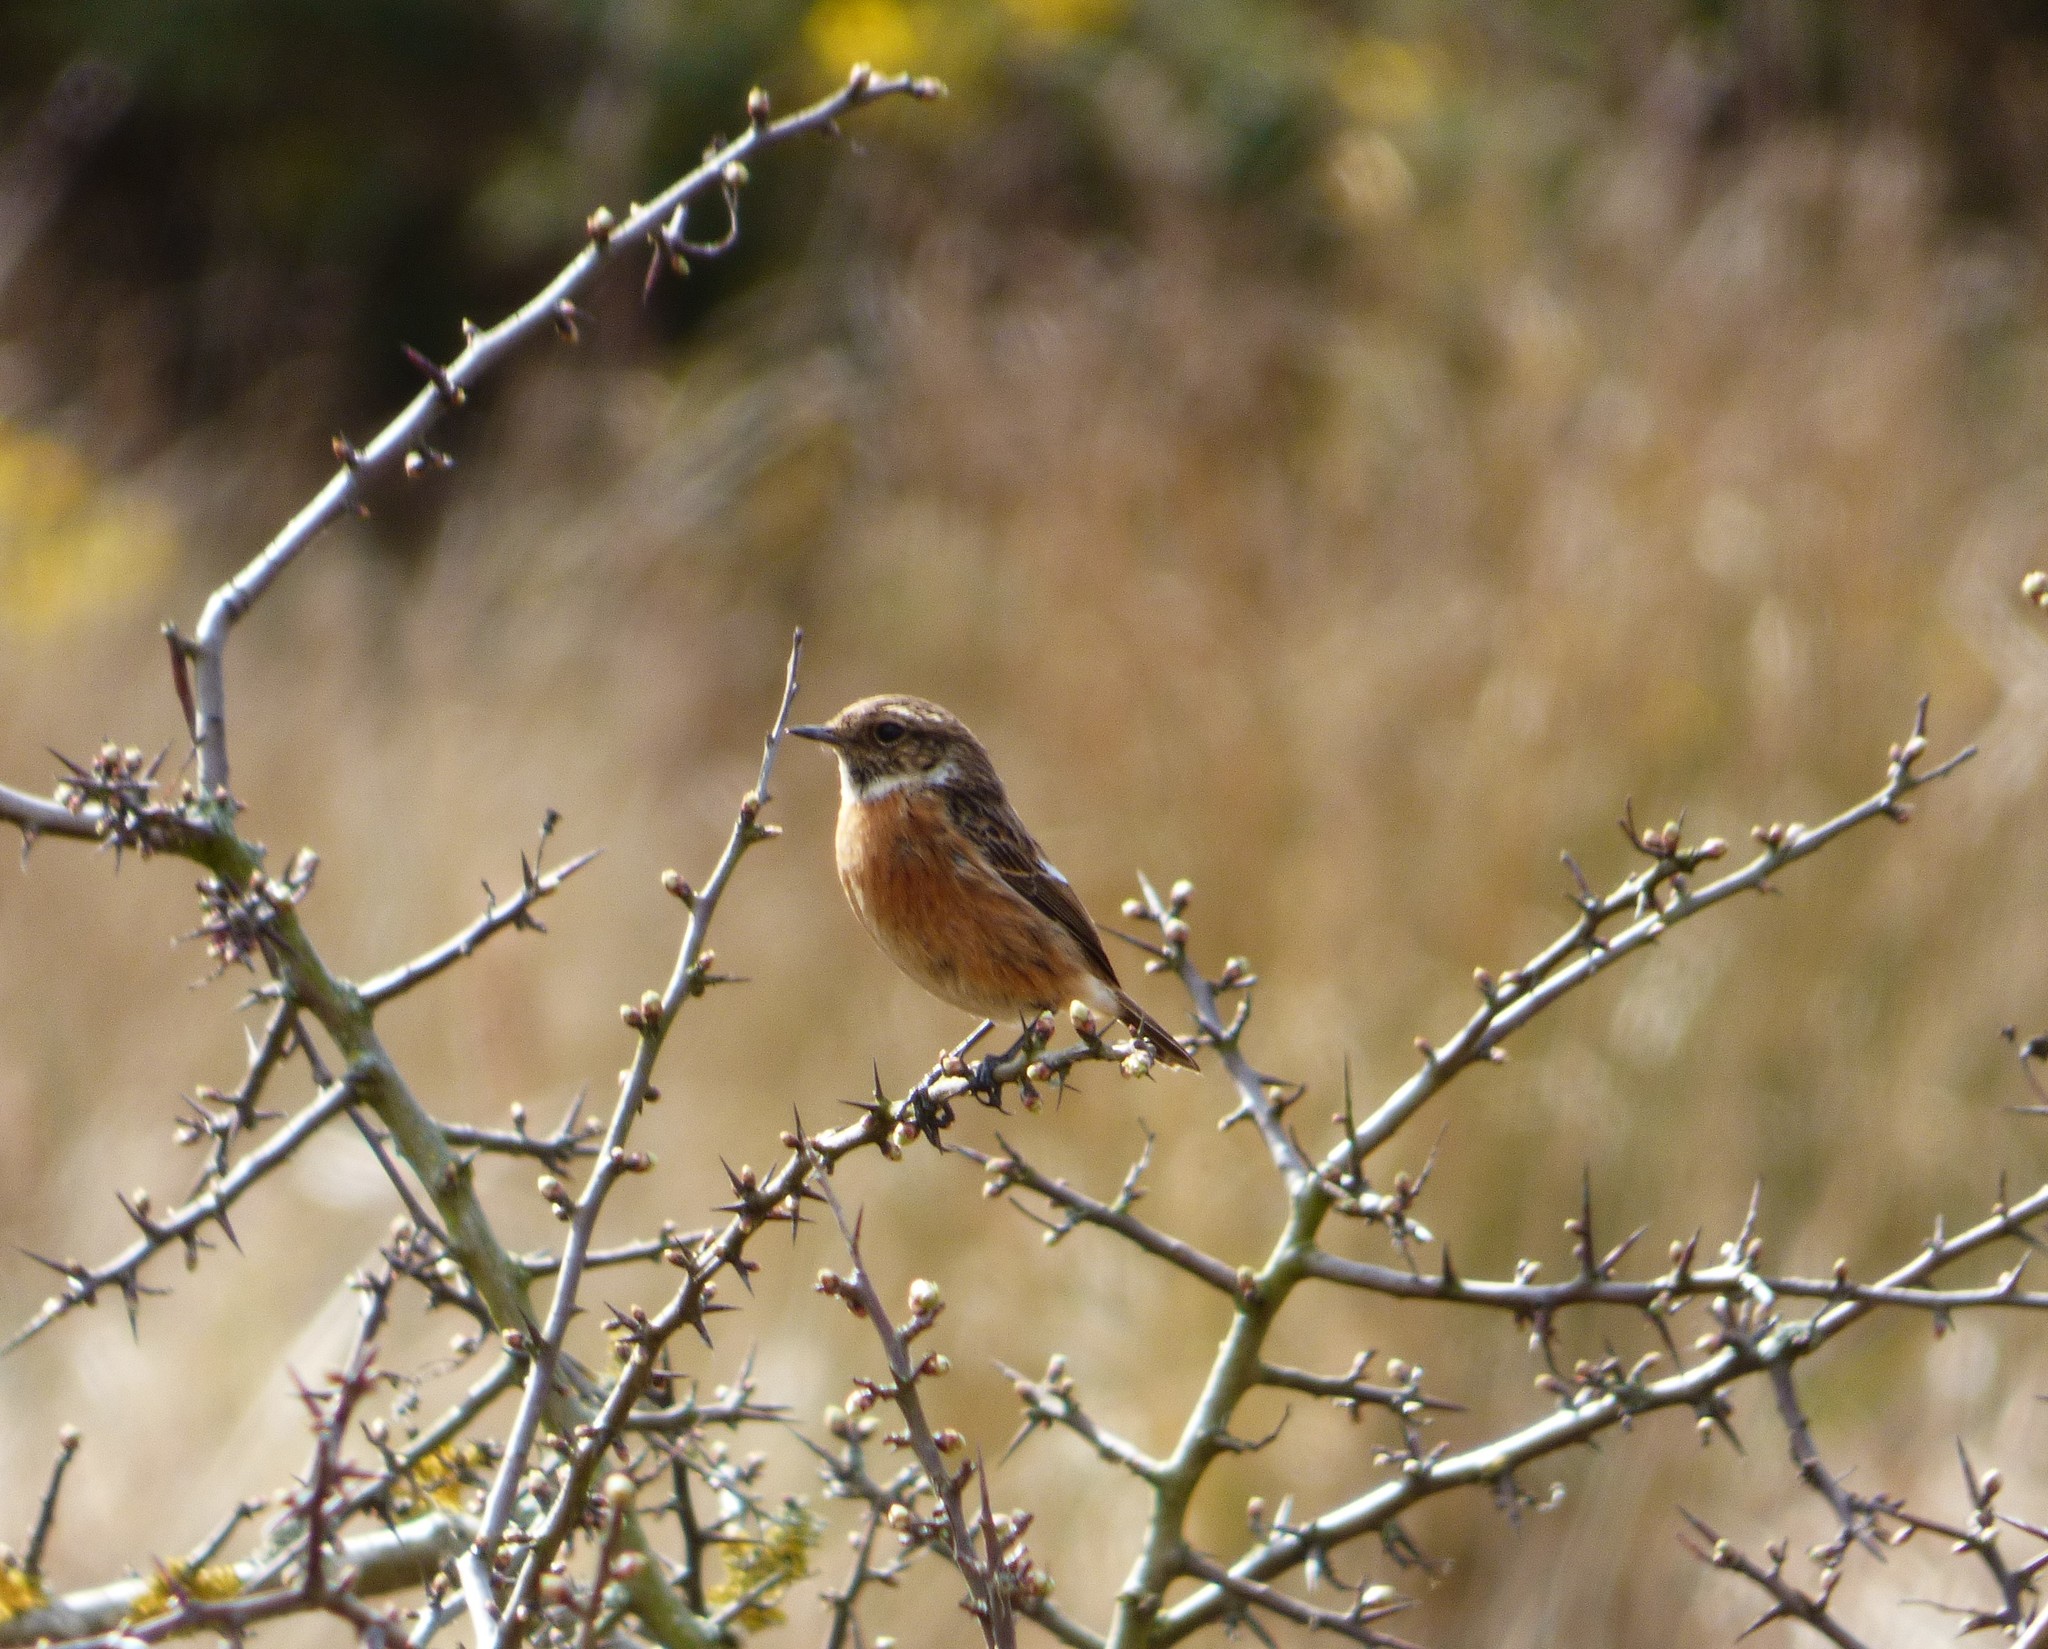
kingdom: Animalia
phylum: Chordata
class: Aves
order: Passeriformes
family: Muscicapidae
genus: Saxicola
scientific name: Saxicola rubicola
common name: European stonechat
